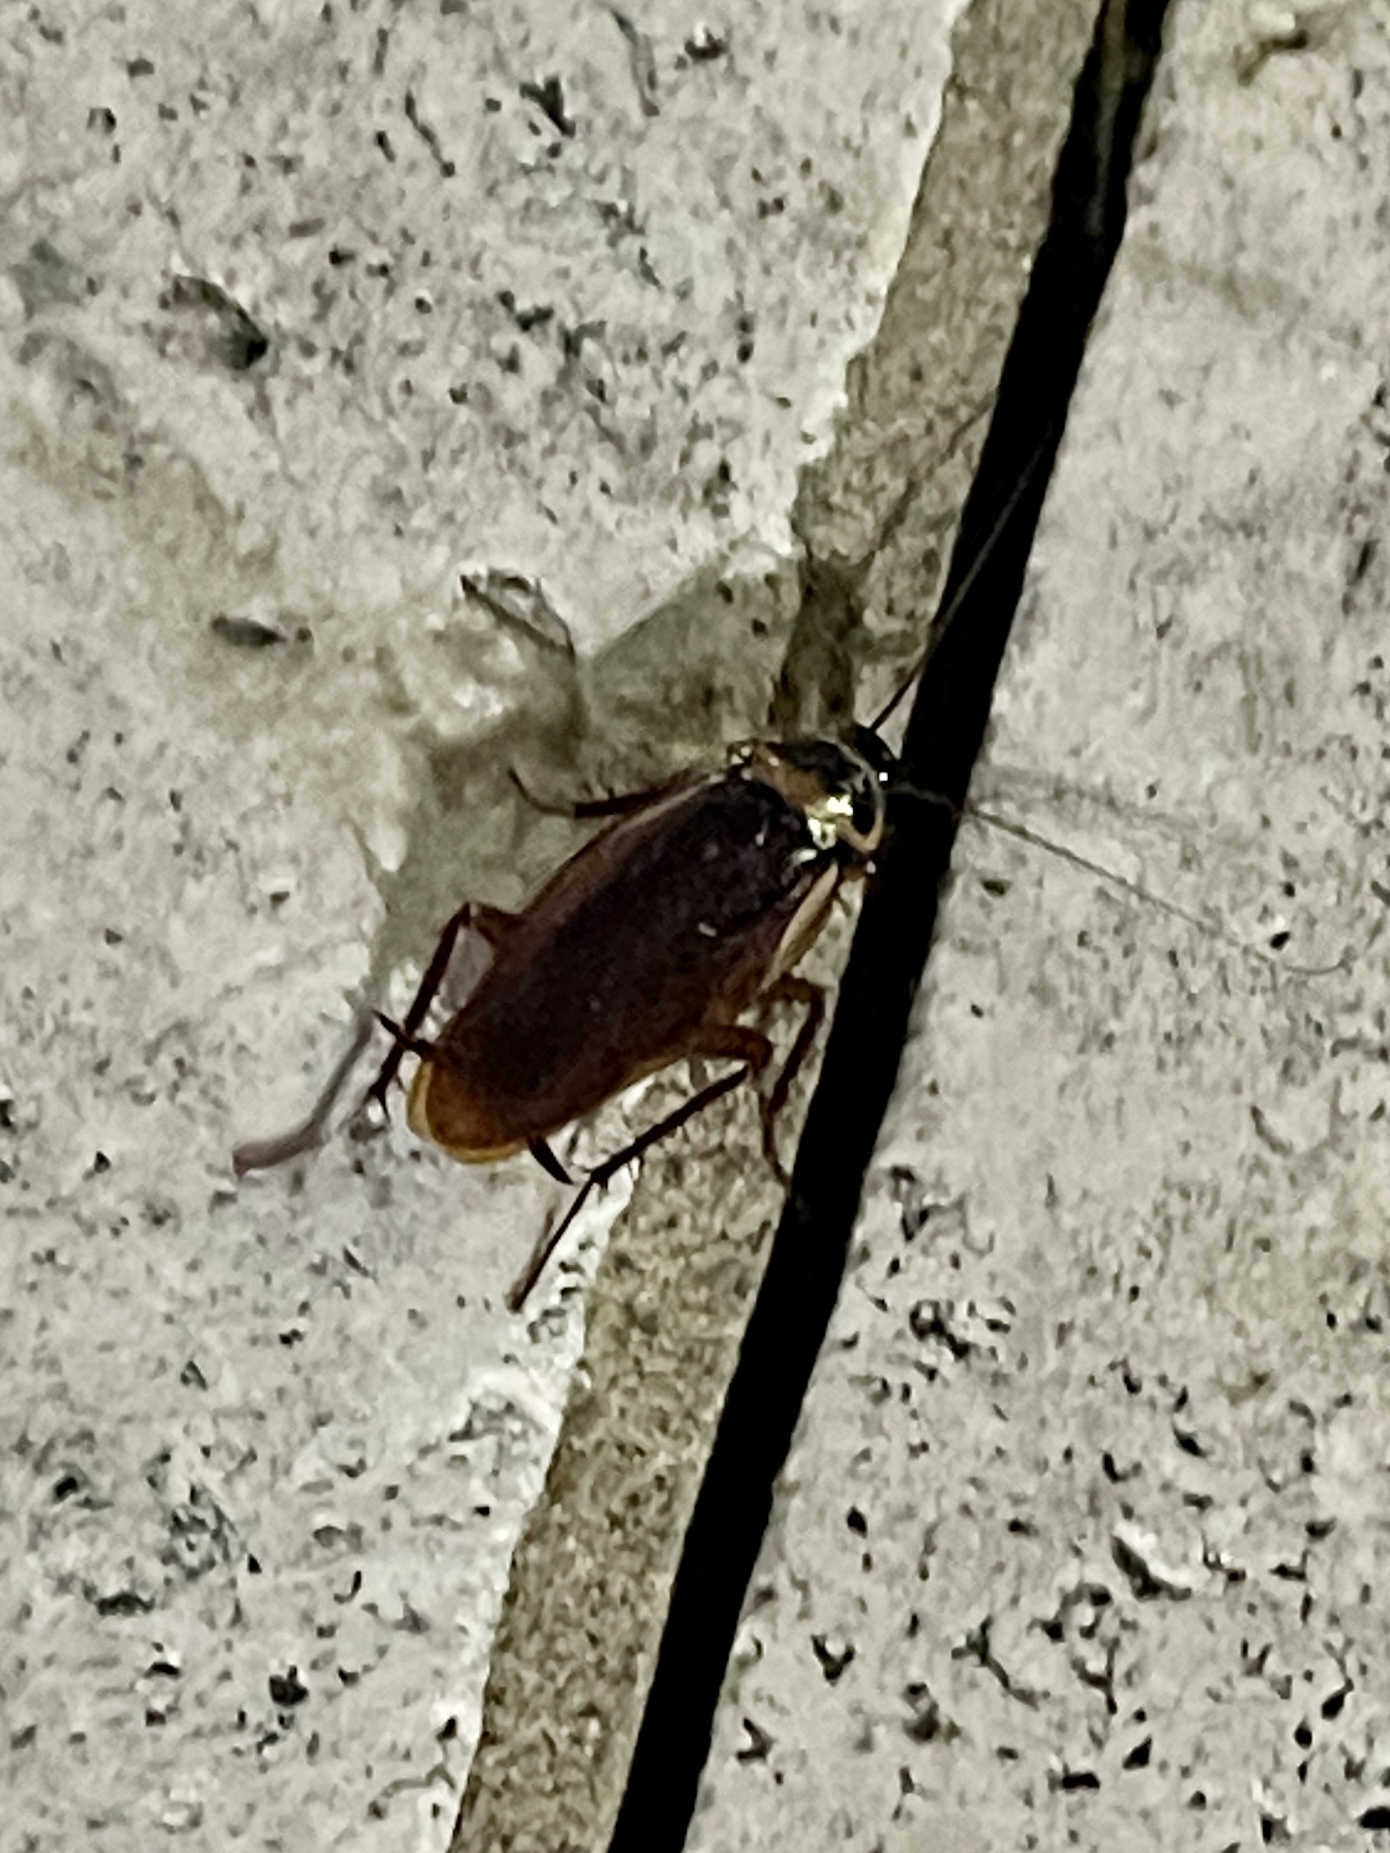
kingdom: Animalia
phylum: Arthropoda
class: Insecta
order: Blattodea
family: Blattidae
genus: Periplaneta
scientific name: Periplaneta australasiae
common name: Australian cockroach
